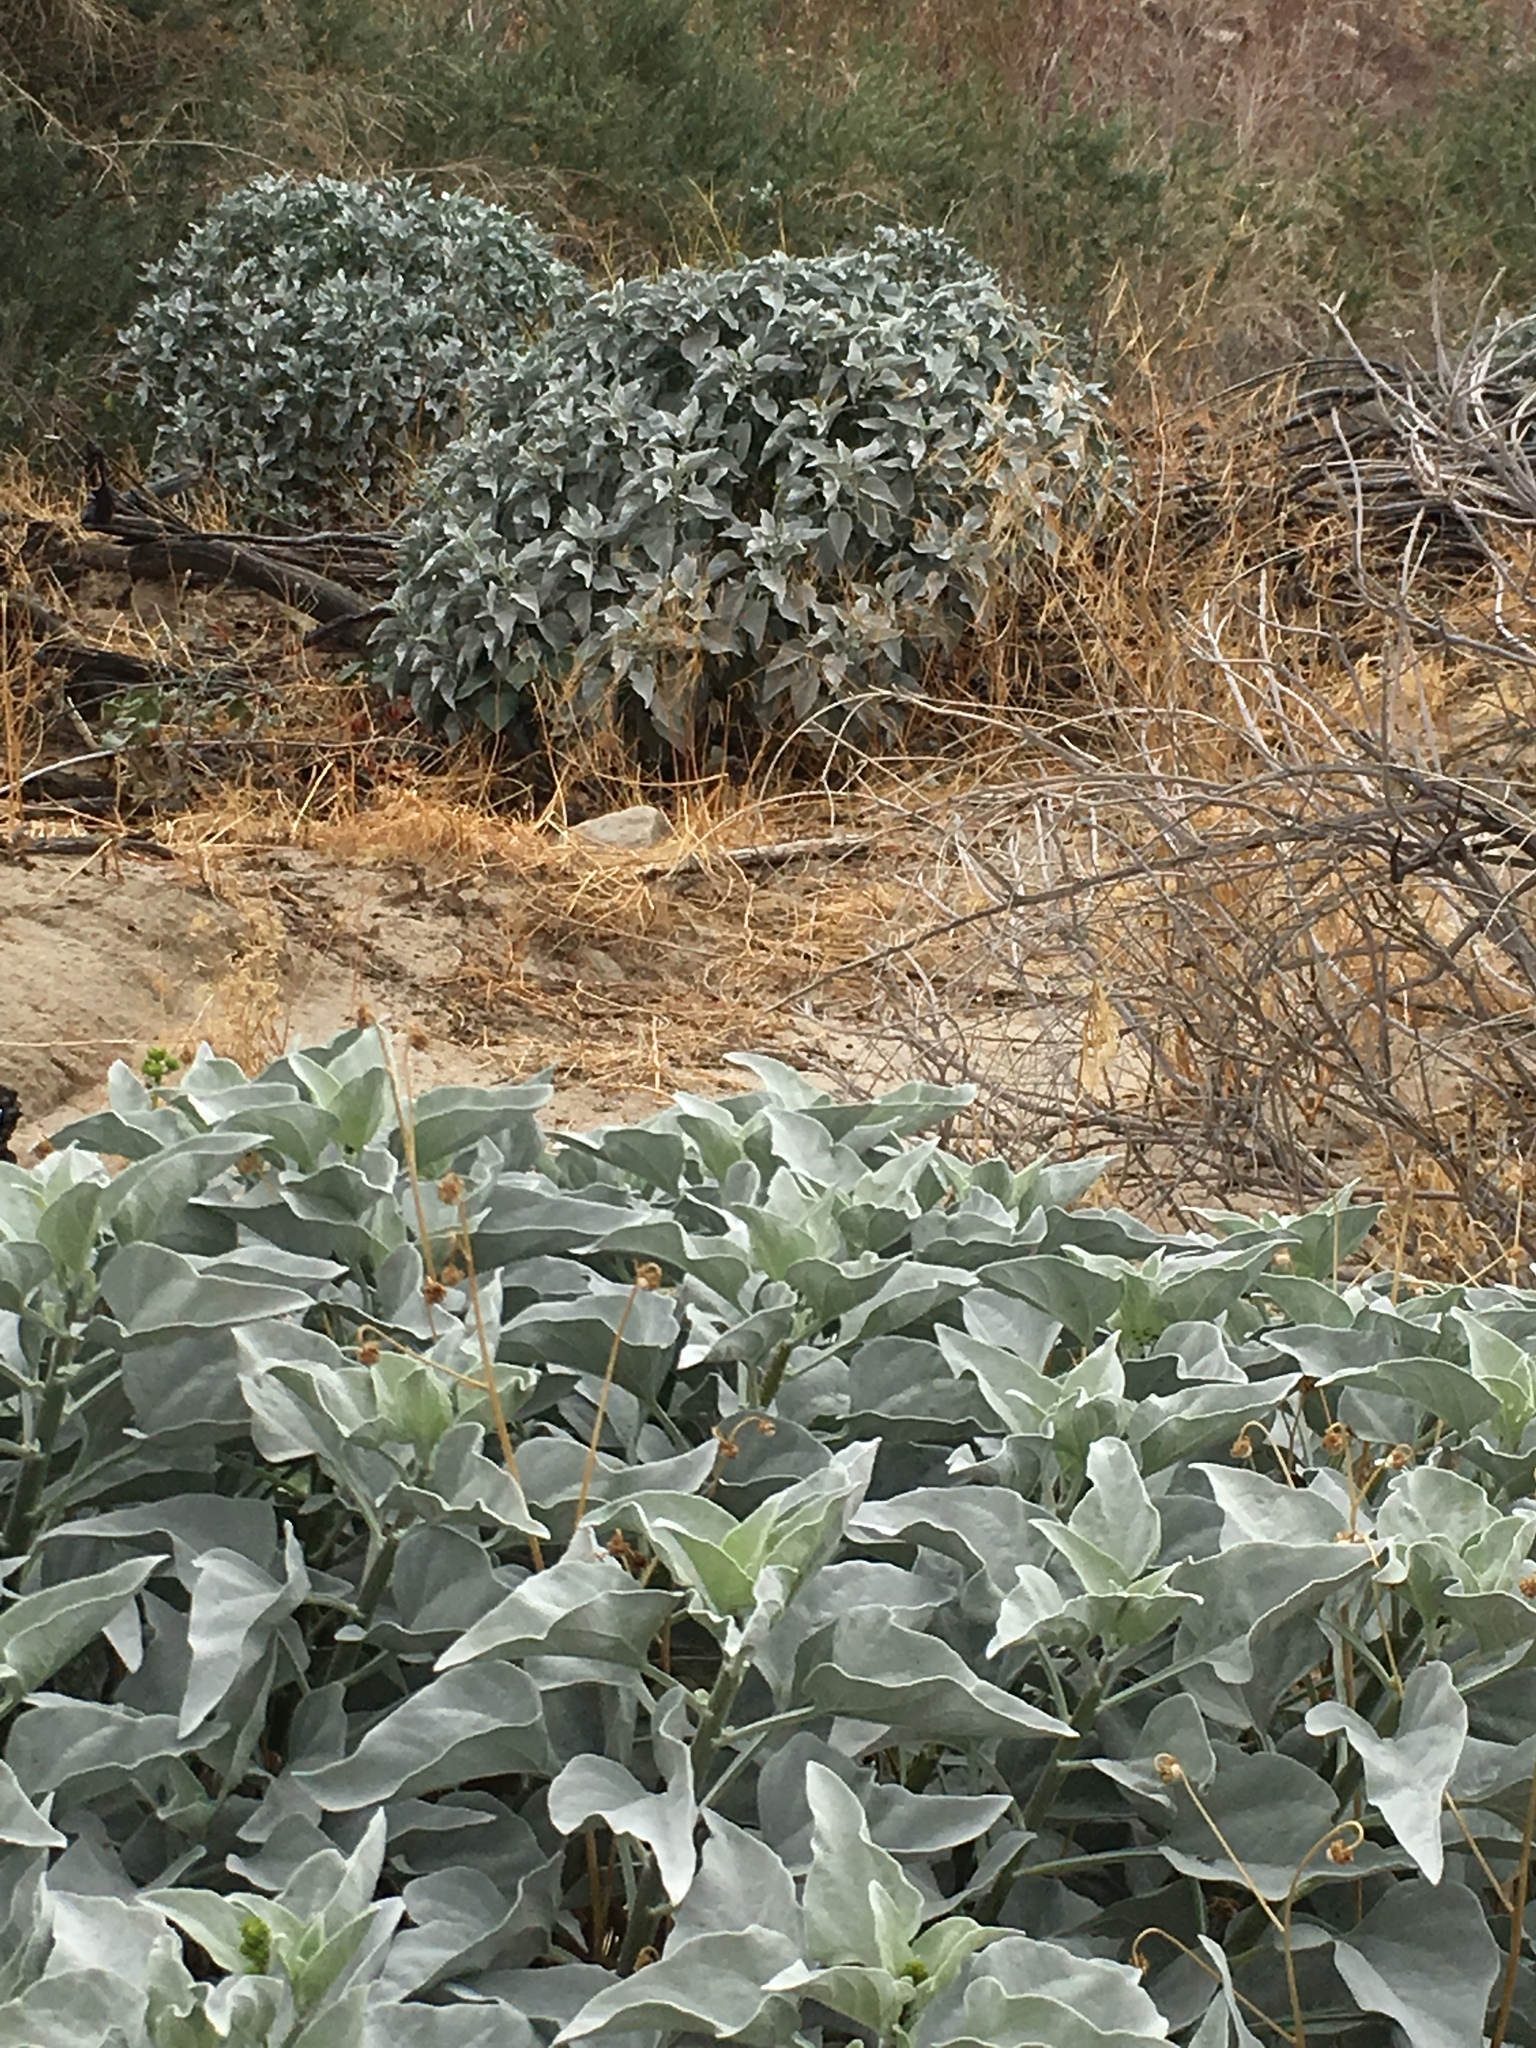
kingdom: Plantae
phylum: Tracheophyta
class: Magnoliopsida
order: Asterales
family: Asteraceae
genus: Encelia
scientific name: Encelia farinosa
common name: Brittlebush
